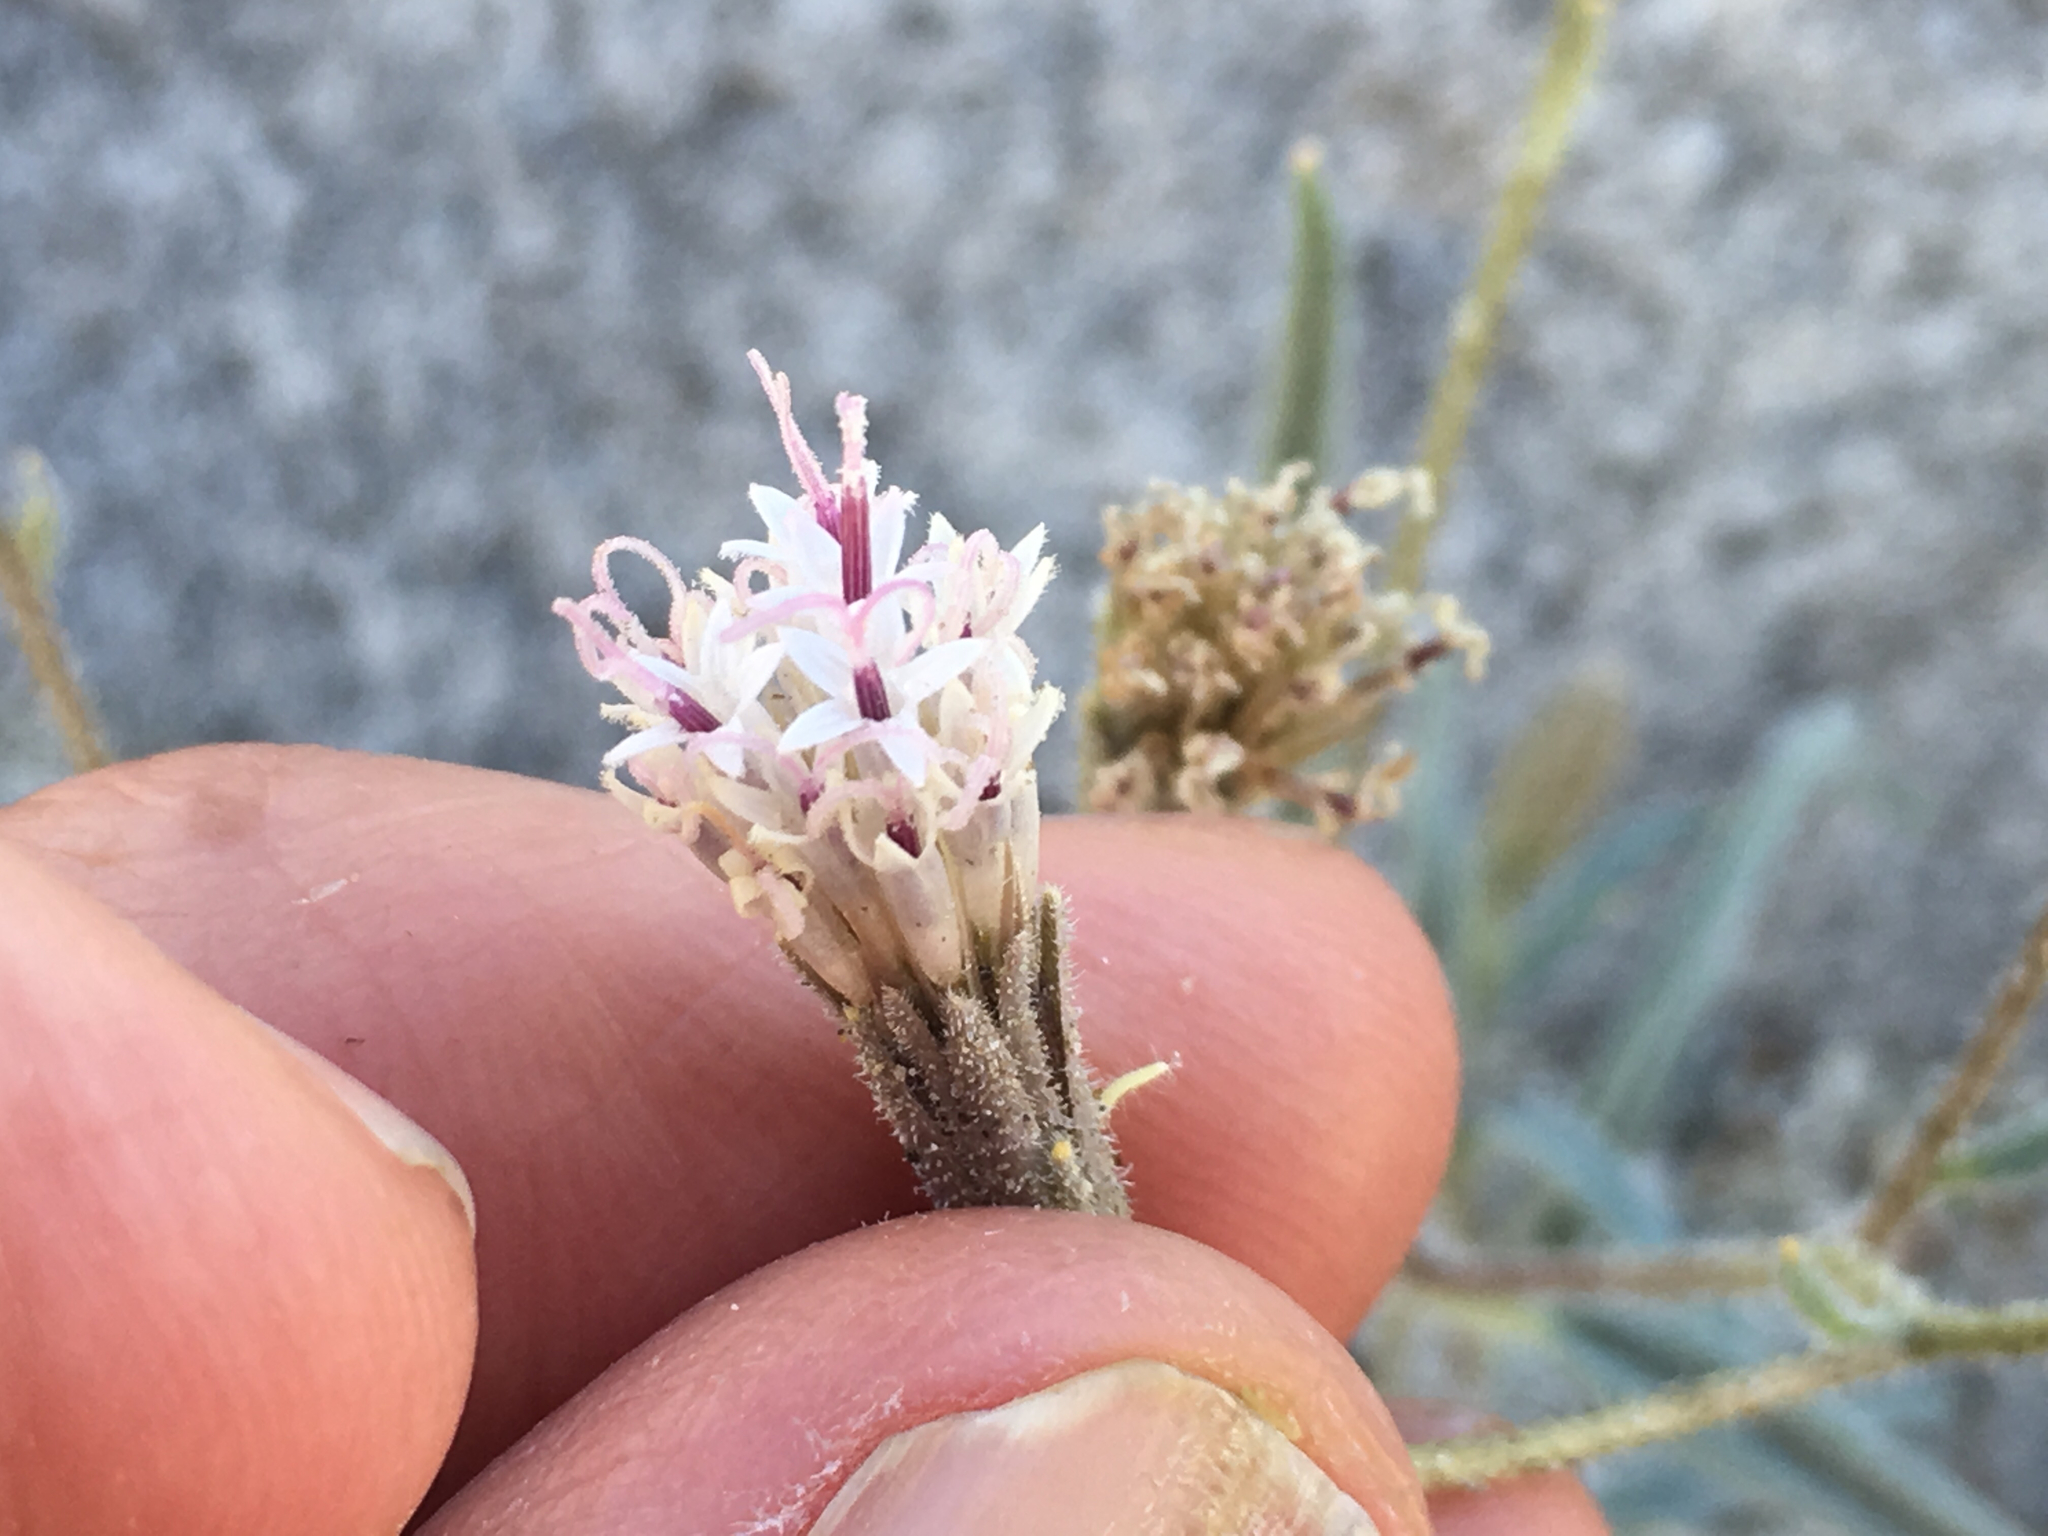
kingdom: Plantae
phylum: Tracheophyta
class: Magnoliopsida
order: Asterales
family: Asteraceae
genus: Palafoxia
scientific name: Palafoxia arida
